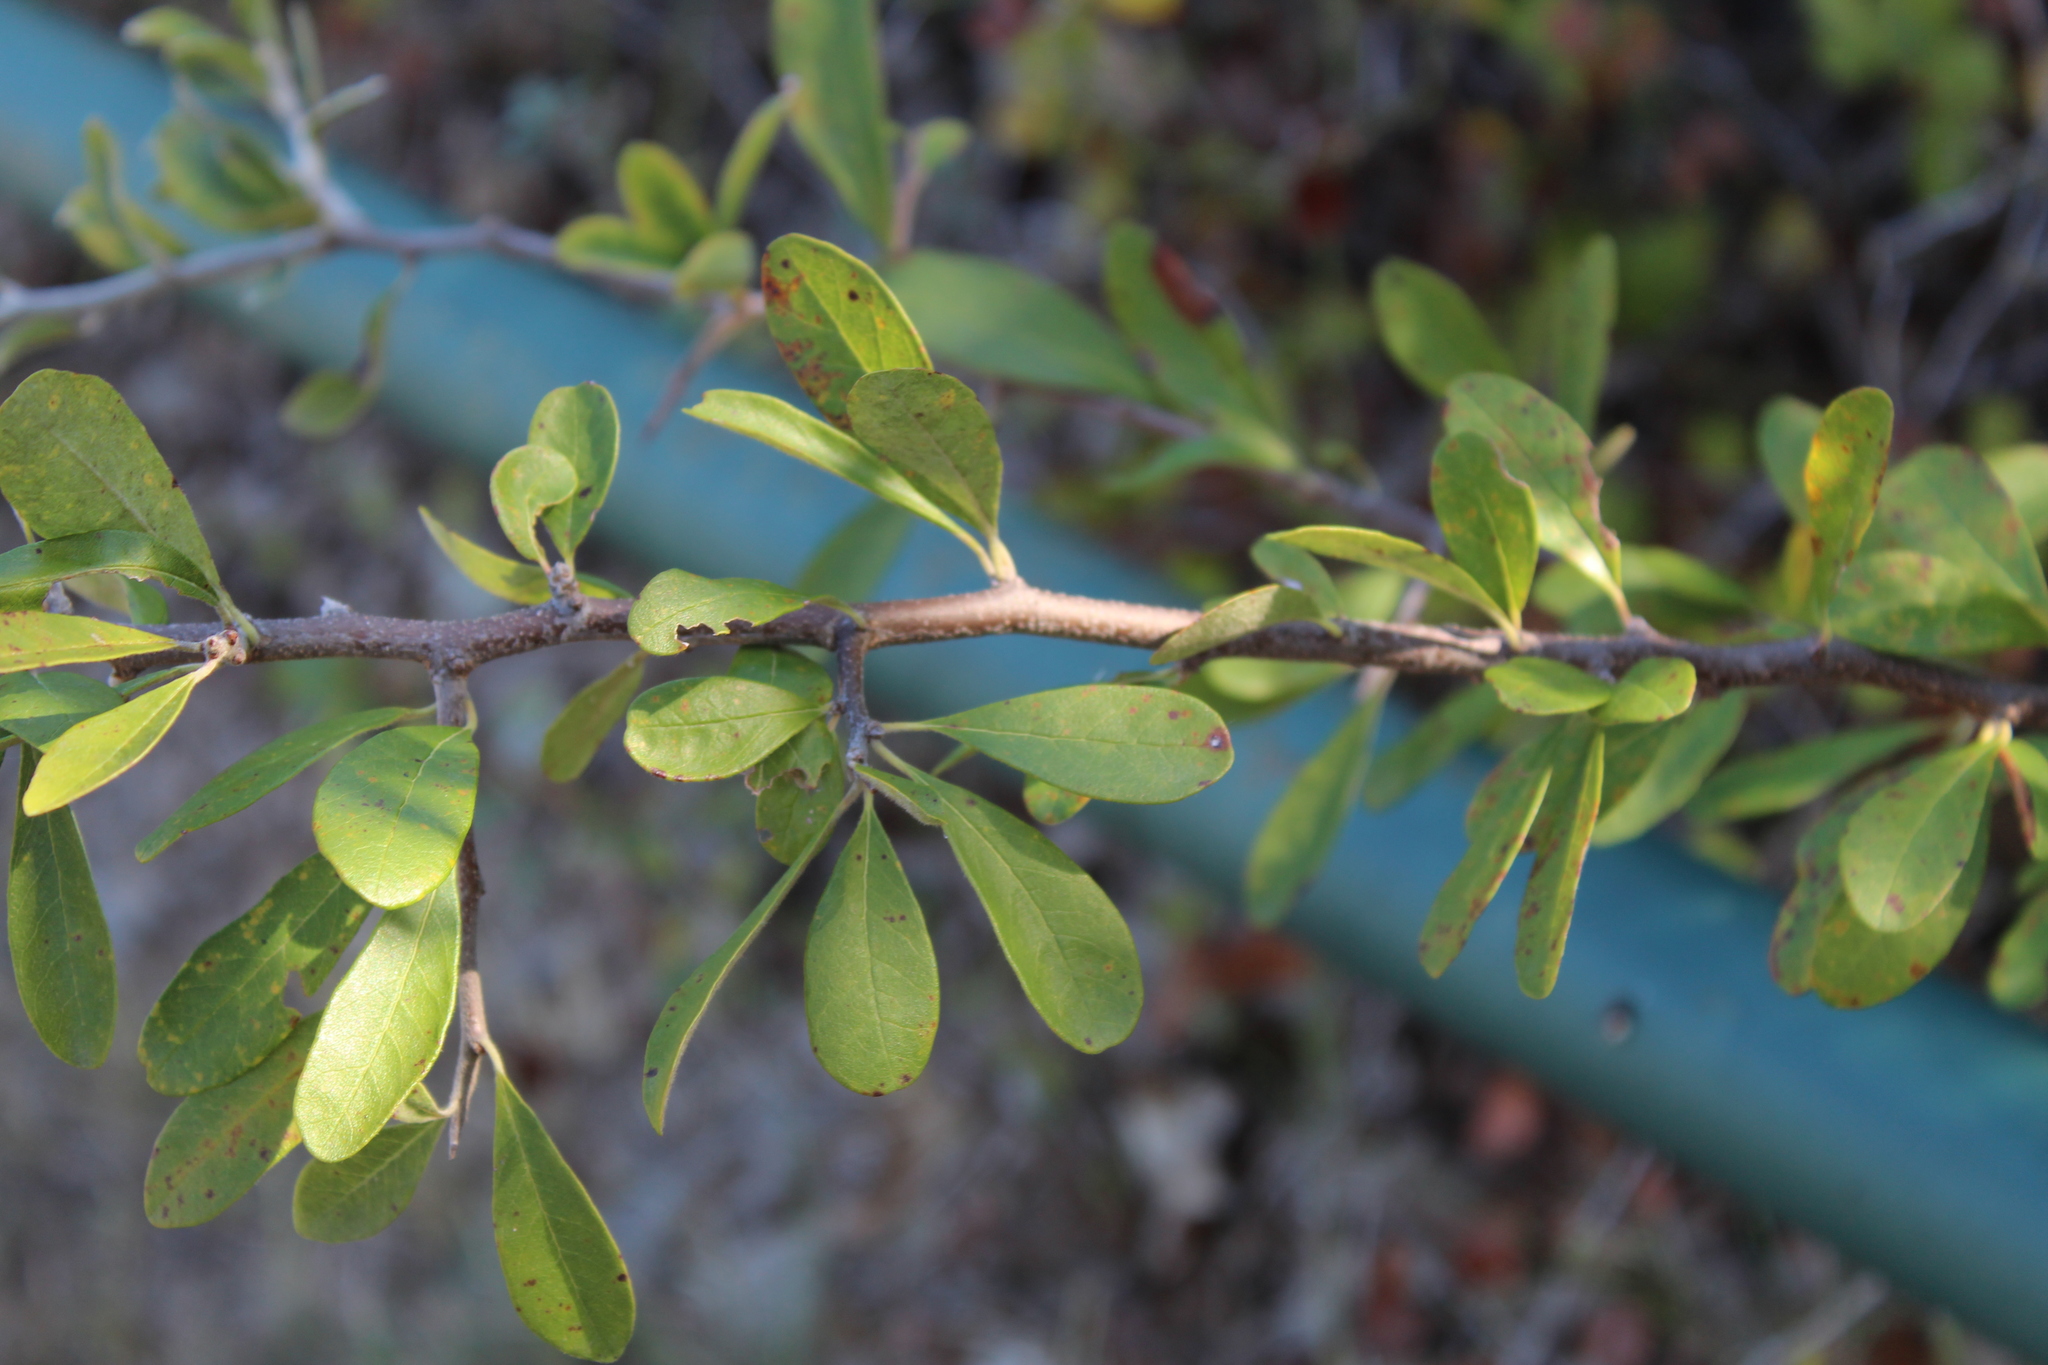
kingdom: Plantae
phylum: Tracheophyta
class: Magnoliopsida
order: Ericales
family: Sapotaceae
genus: Sideroxylon
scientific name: Sideroxylon lanuginosum
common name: Chittamwood
